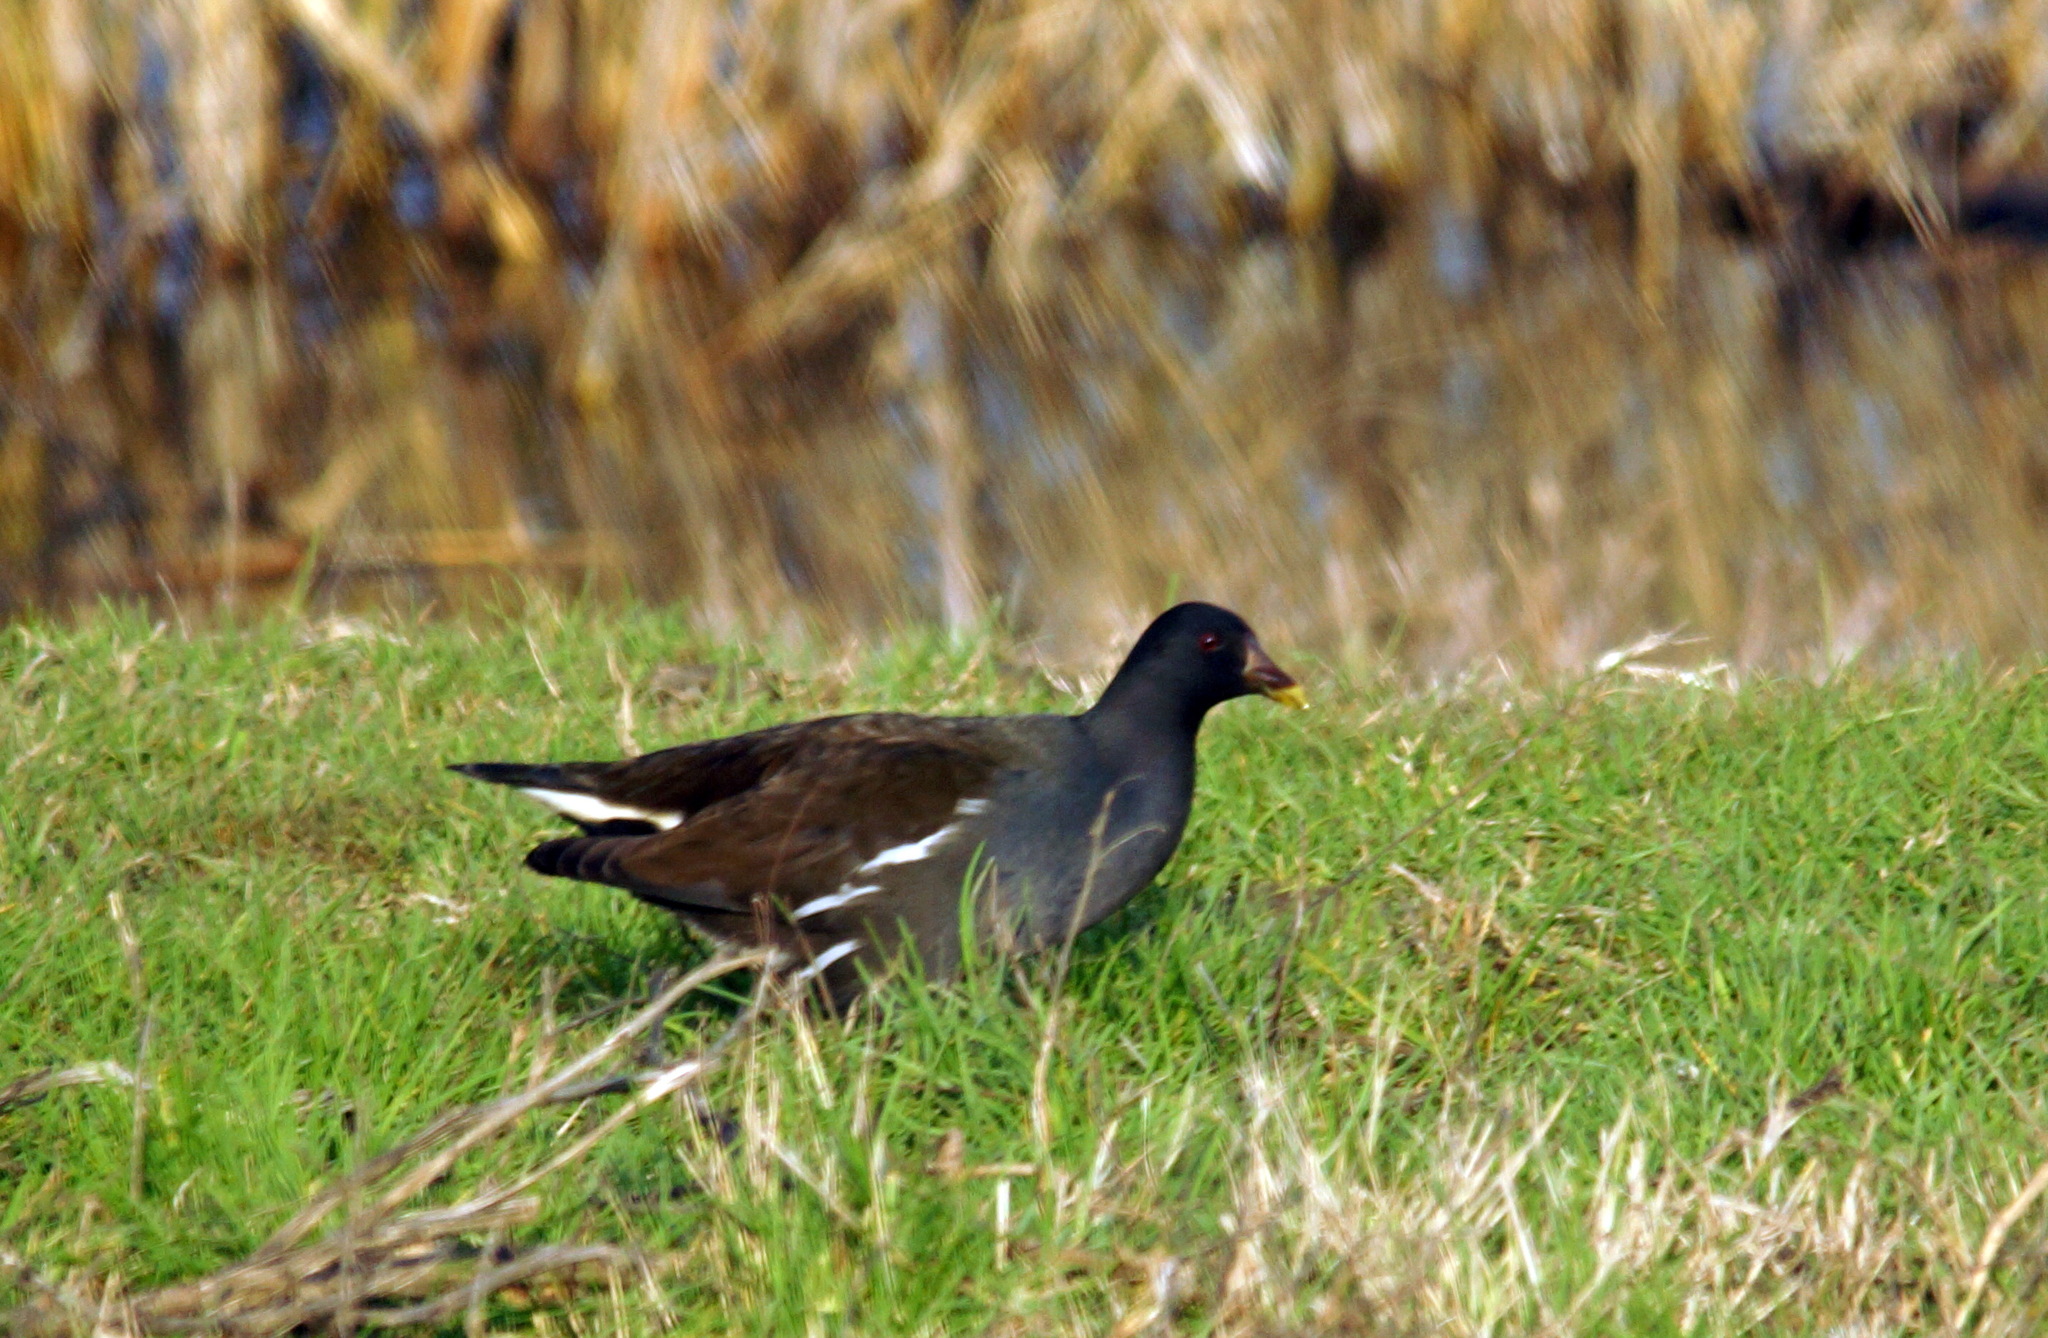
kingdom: Animalia
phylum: Chordata
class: Aves
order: Gruiformes
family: Rallidae
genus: Gallinula
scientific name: Gallinula chloropus
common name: Common moorhen
